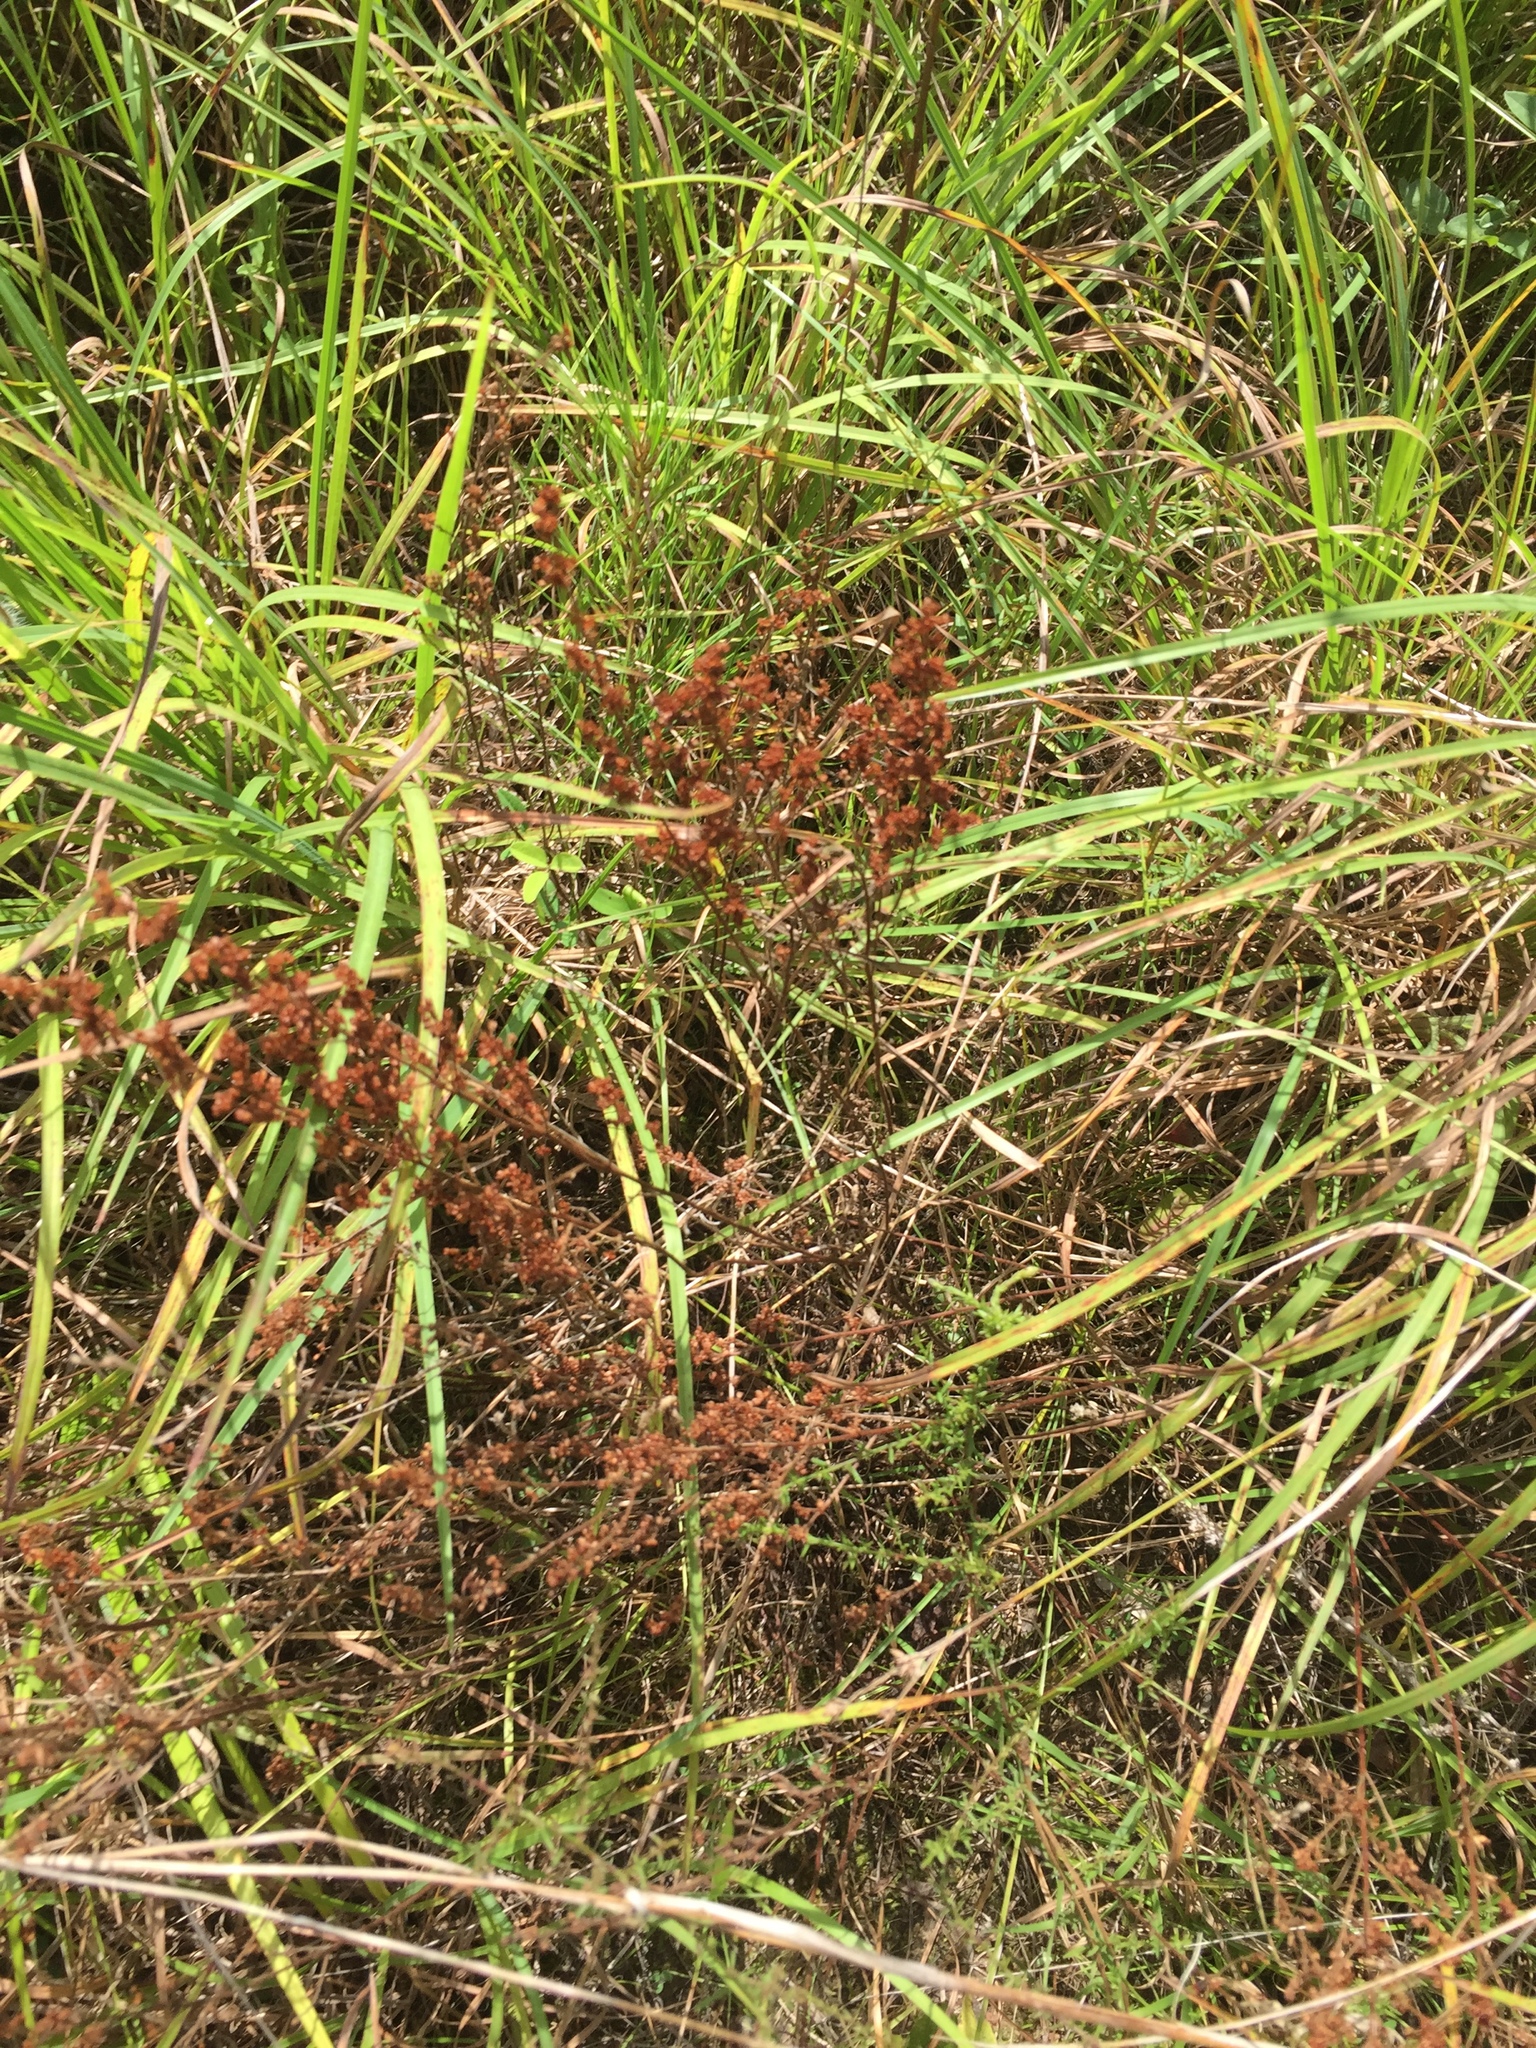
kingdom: Plantae
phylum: Tracheophyta
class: Magnoliopsida
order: Malvales
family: Cistaceae
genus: Lechea
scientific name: Lechea mucronata
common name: Hairy pinweed
